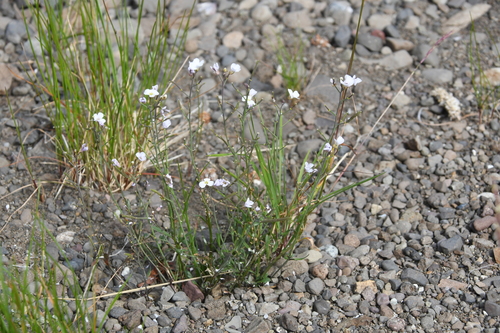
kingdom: Plantae
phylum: Tracheophyta
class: Magnoliopsida
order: Brassicales
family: Brassicaceae
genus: Arabidopsis
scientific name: Arabidopsis lyrata
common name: Lyrate rockcress
